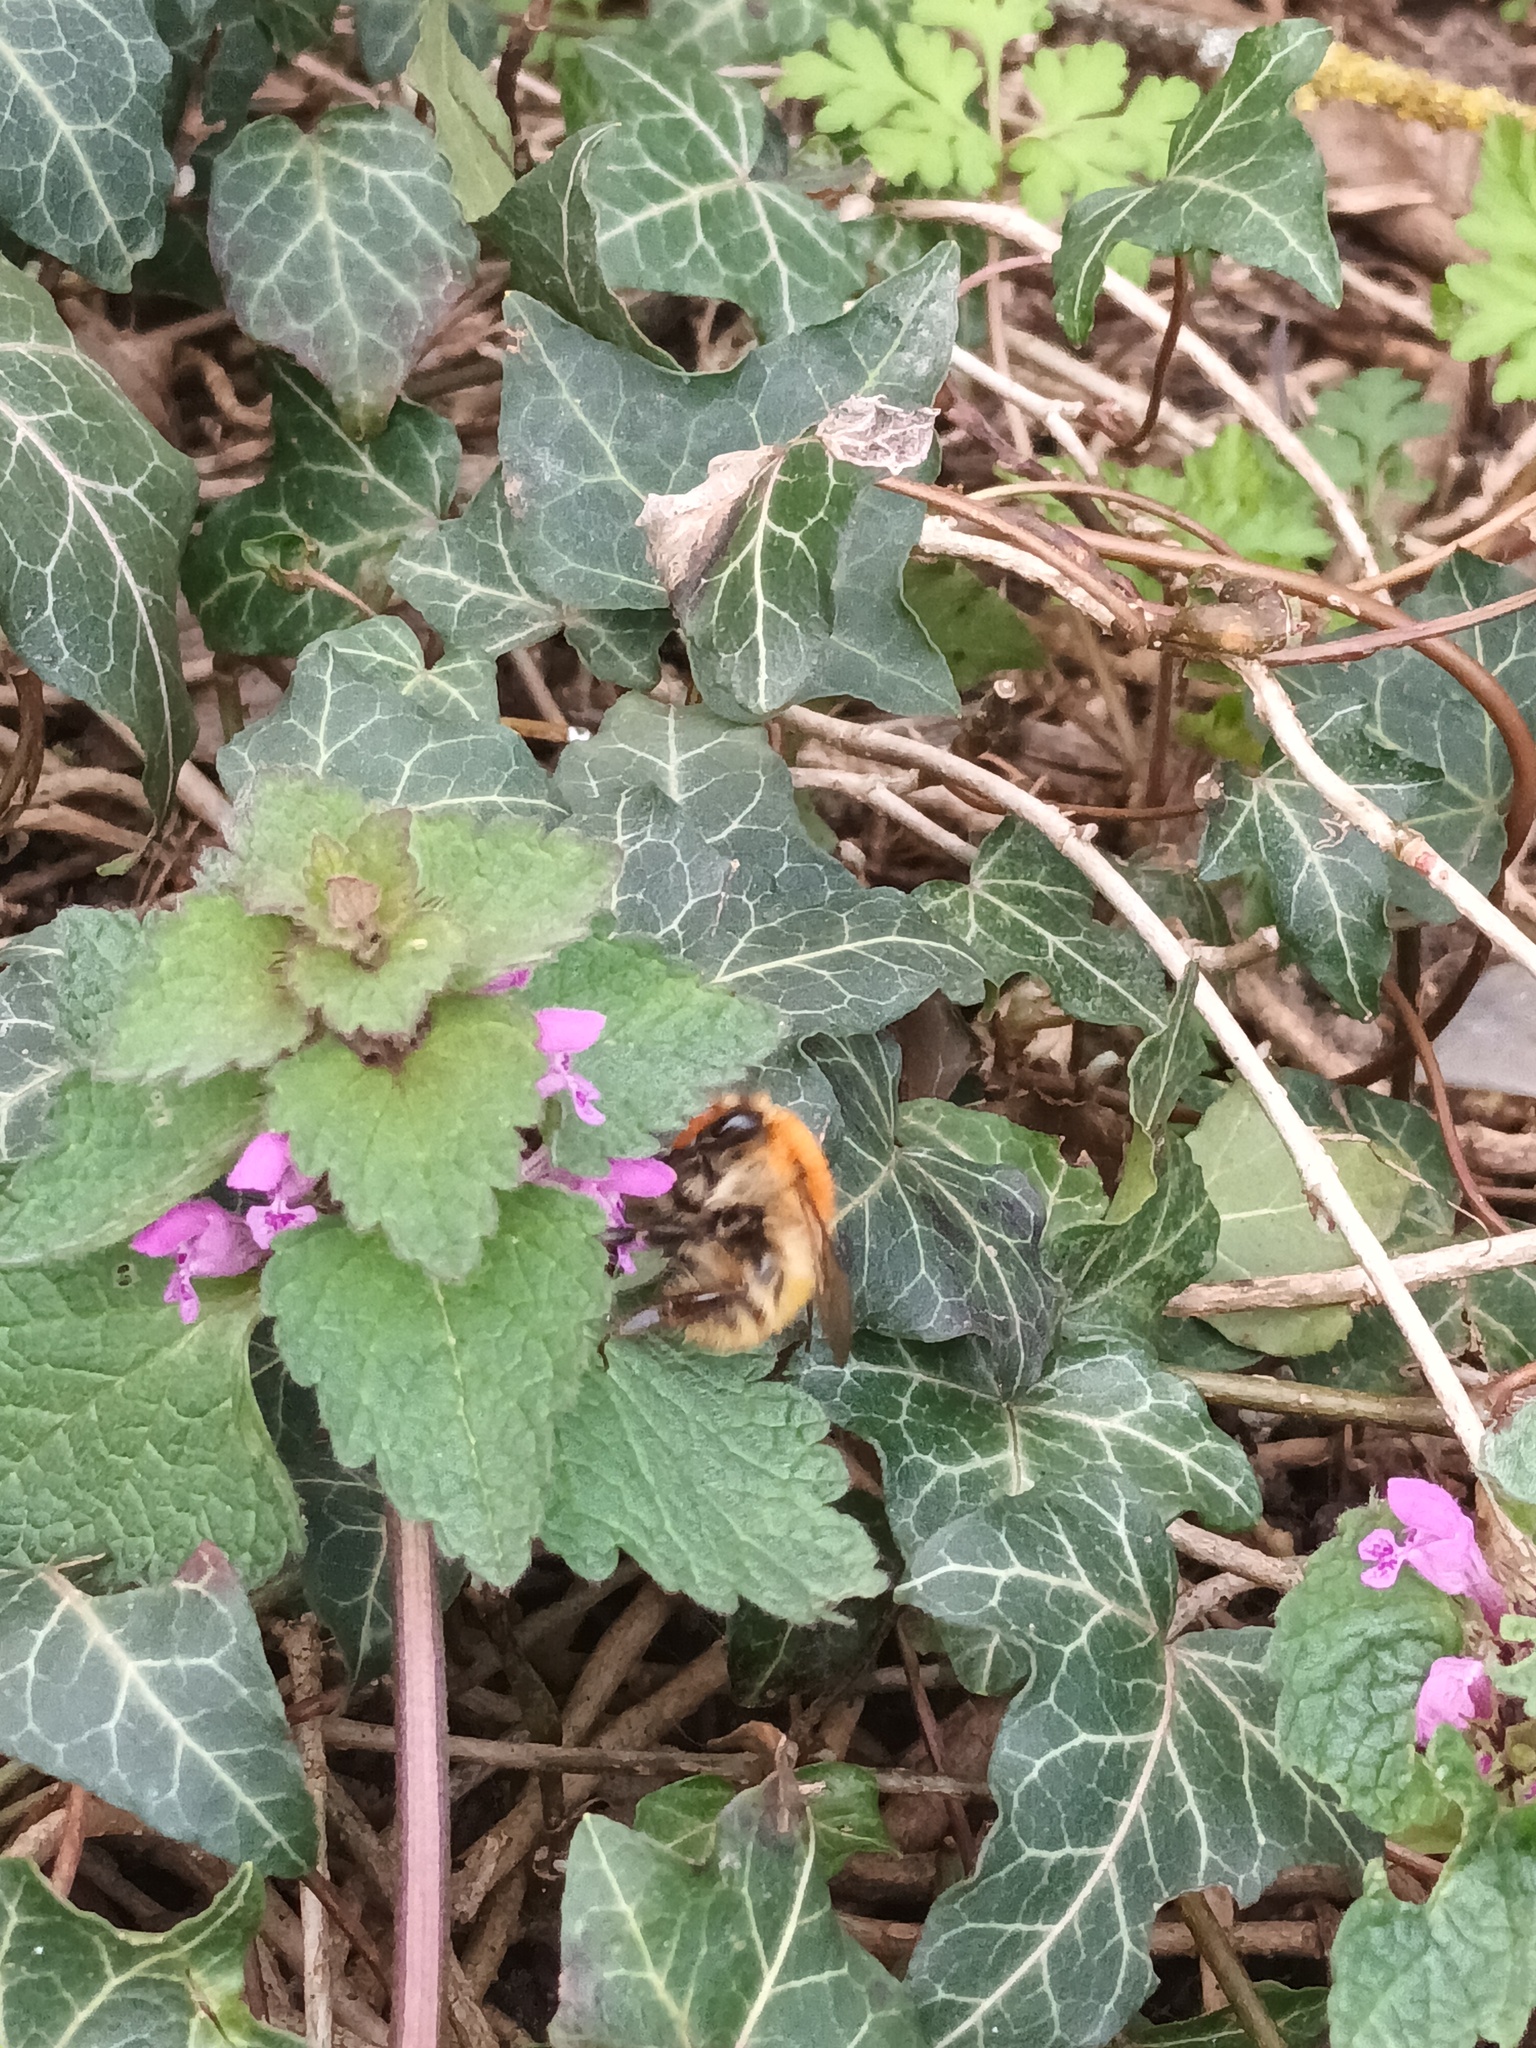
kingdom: Animalia
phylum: Arthropoda
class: Insecta
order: Hymenoptera
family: Apidae
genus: Bombus
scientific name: Bombus pascuorum
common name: Common carder bee
